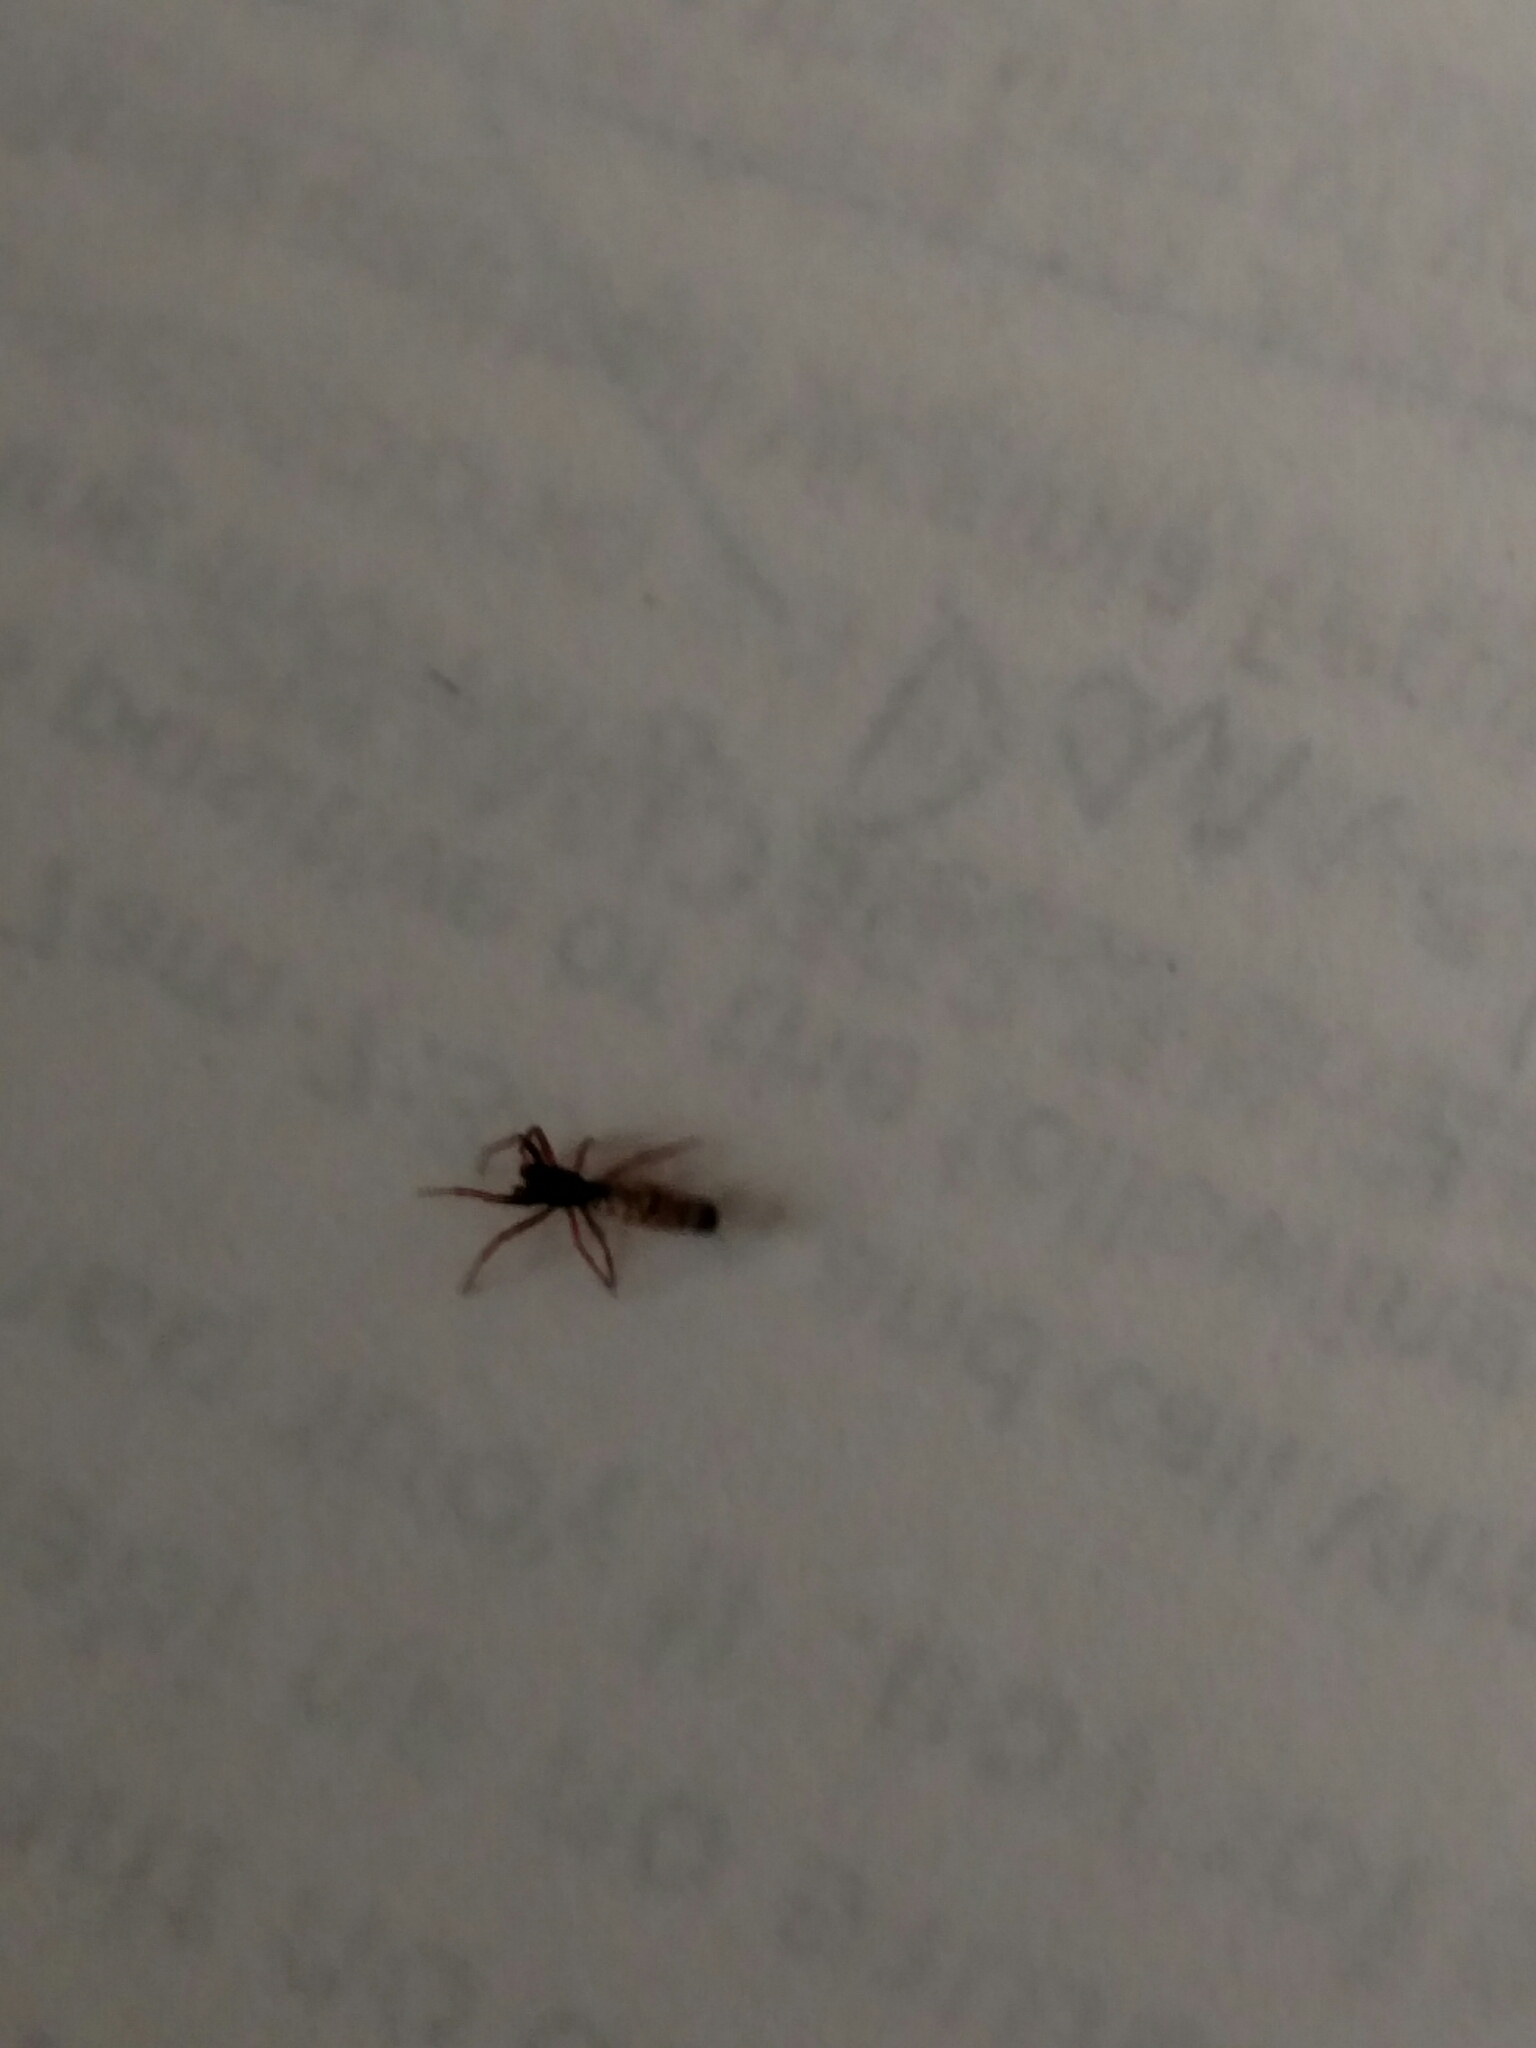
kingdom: Animalia
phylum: Arthropoda
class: Arachnida
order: Araneae
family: Araneidae
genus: Micrathena
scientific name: Micrathena gracilis
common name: Orb weavers
